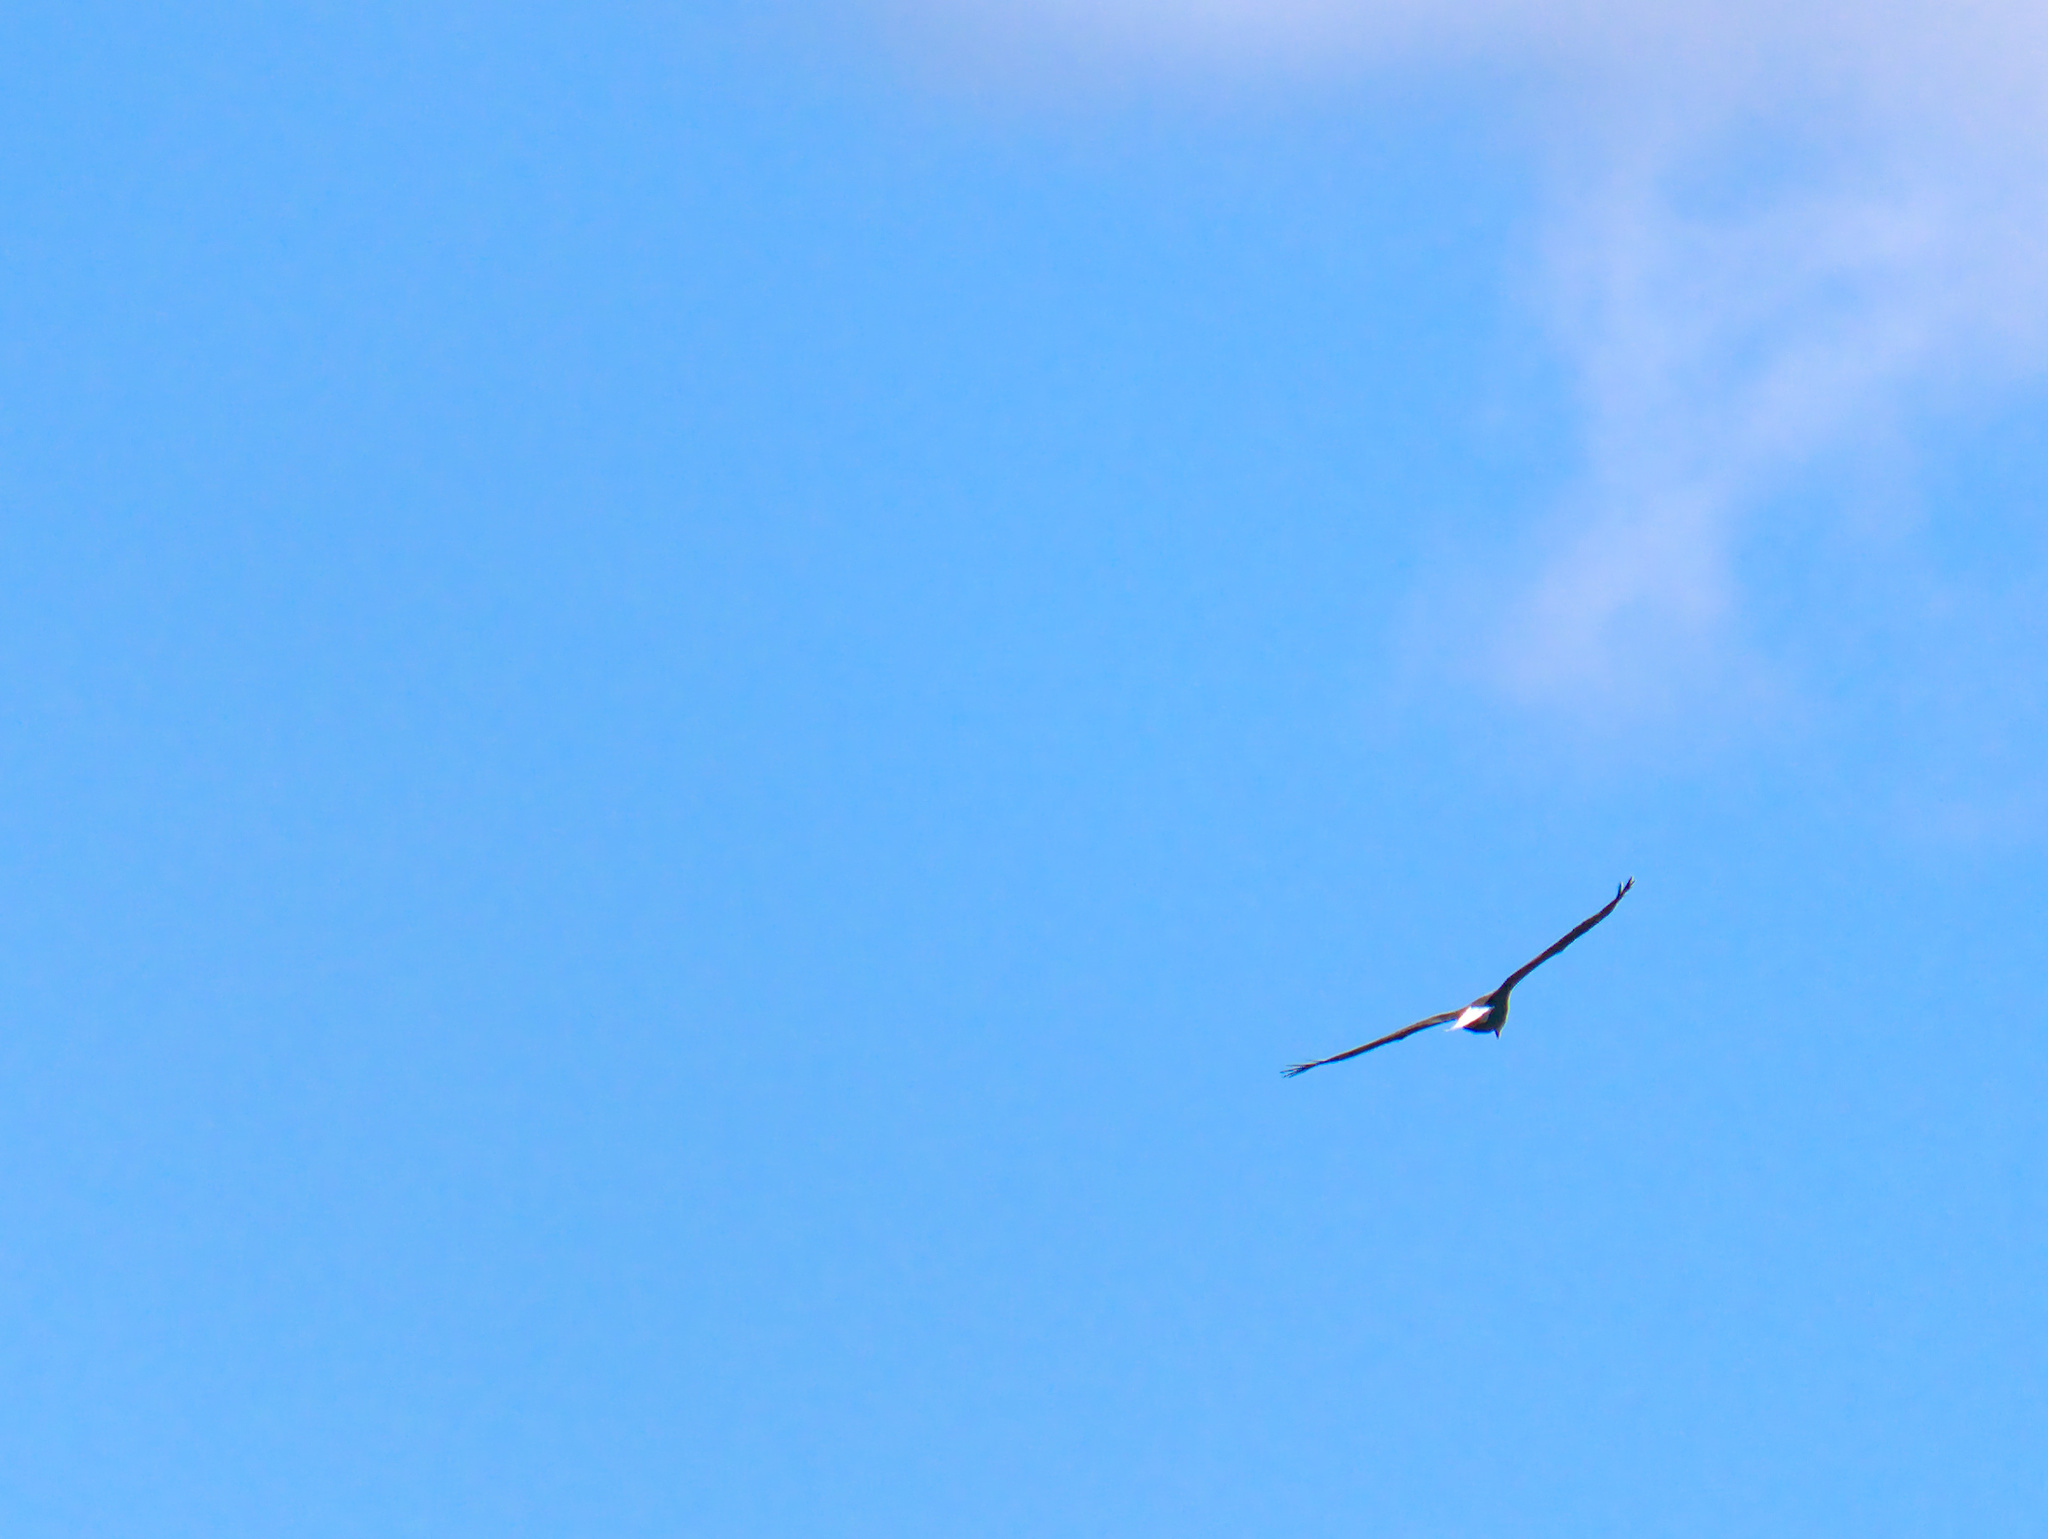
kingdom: Animalia
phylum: Chordata
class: Aves
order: Accipitriformes
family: Accipitridae
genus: Haliaeetus
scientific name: Haliaeetus leucocephalus
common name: Bald eagle
